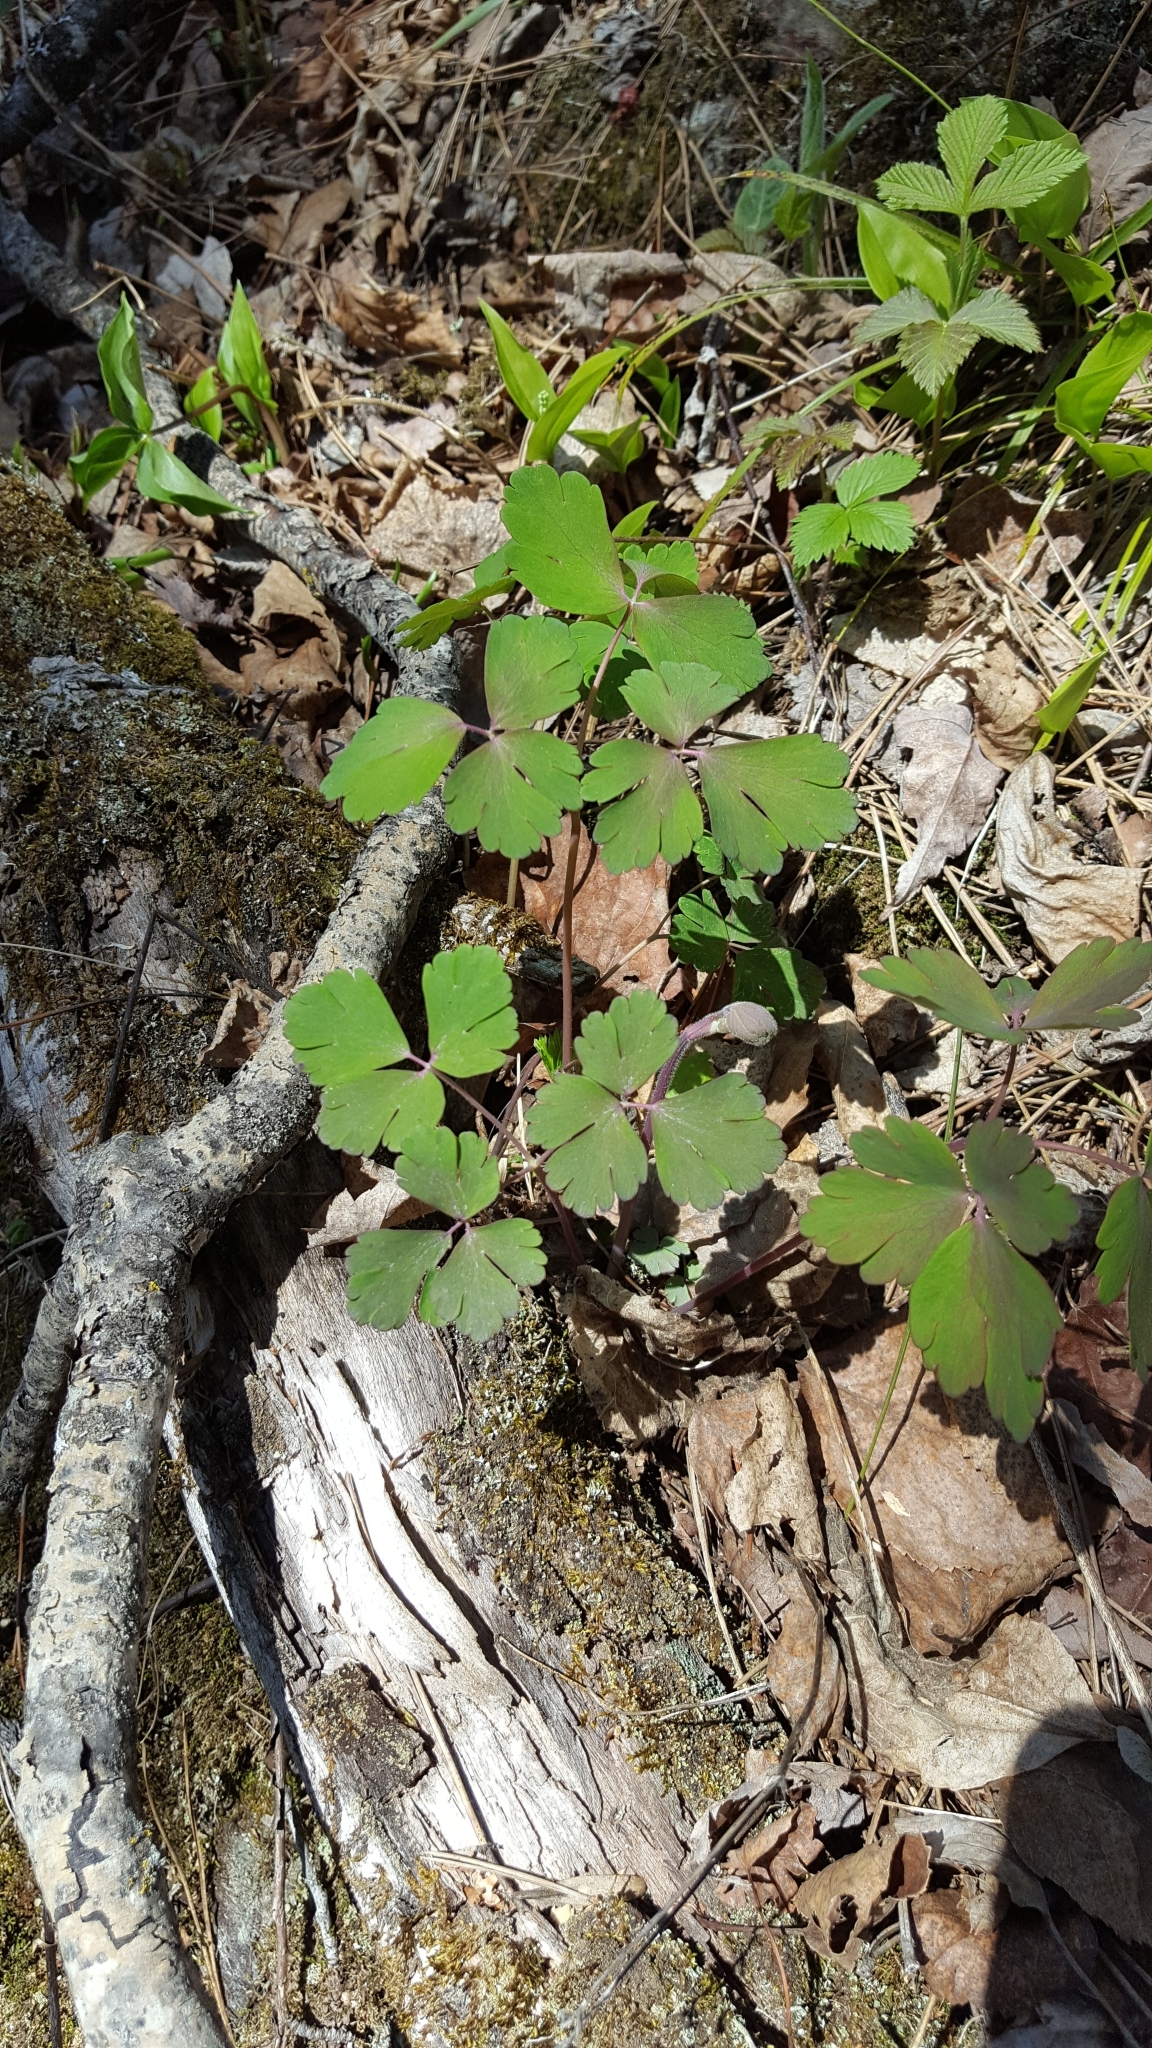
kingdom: Plantae
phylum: Tracheophyta
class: Magnoliopsida
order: Ranunculales
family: Ranunculaceae
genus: Aquilegia
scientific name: Aquilegia canadensis
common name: American columbine
